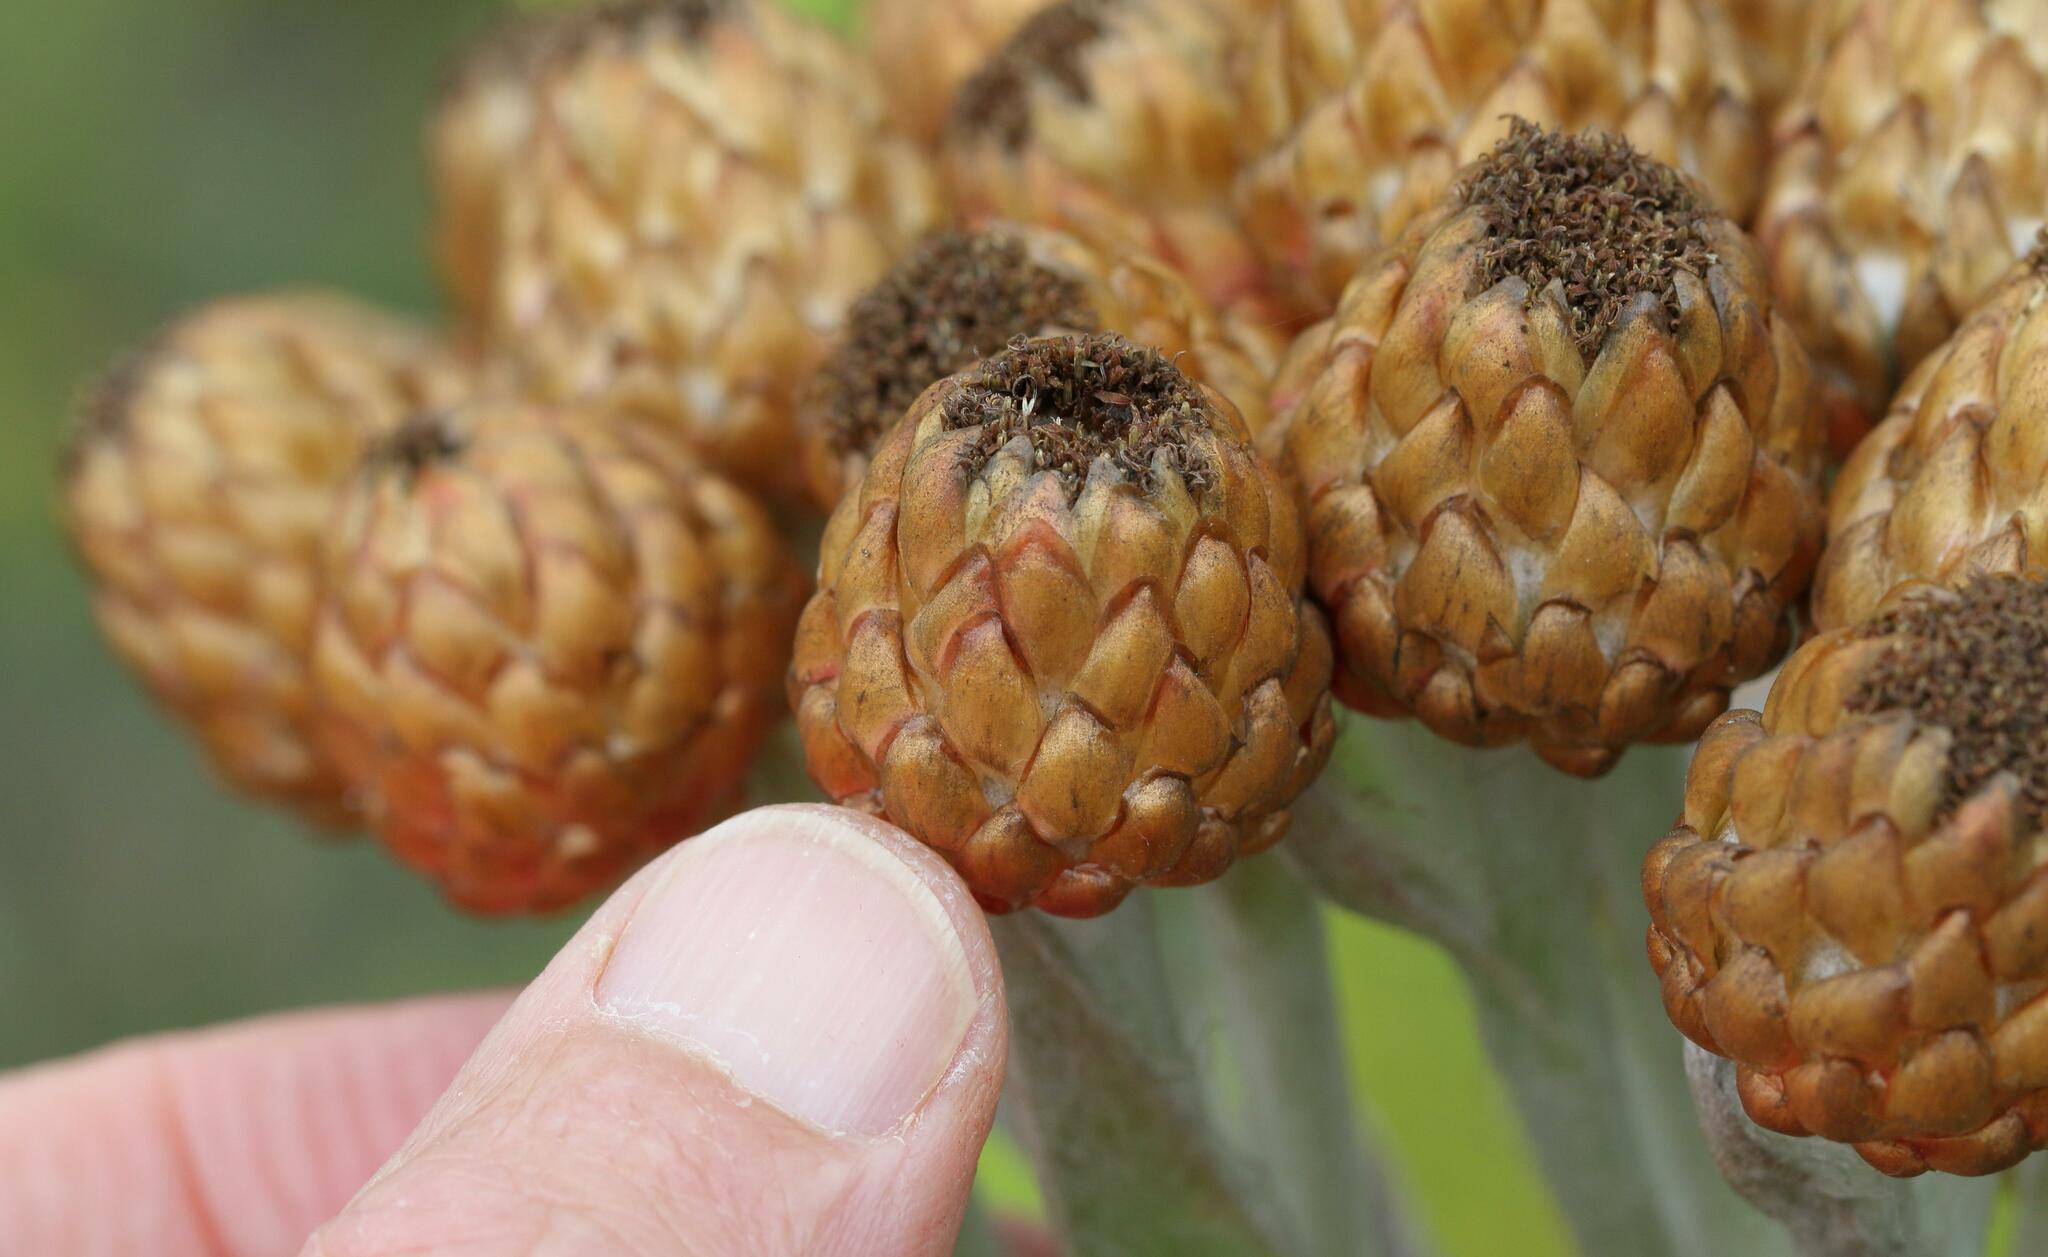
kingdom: Plantae
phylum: Tracheophyta
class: Magnoliopsida
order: Asterales
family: Asteraceae
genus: Syncarpha
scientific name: Syncarpha eximia
